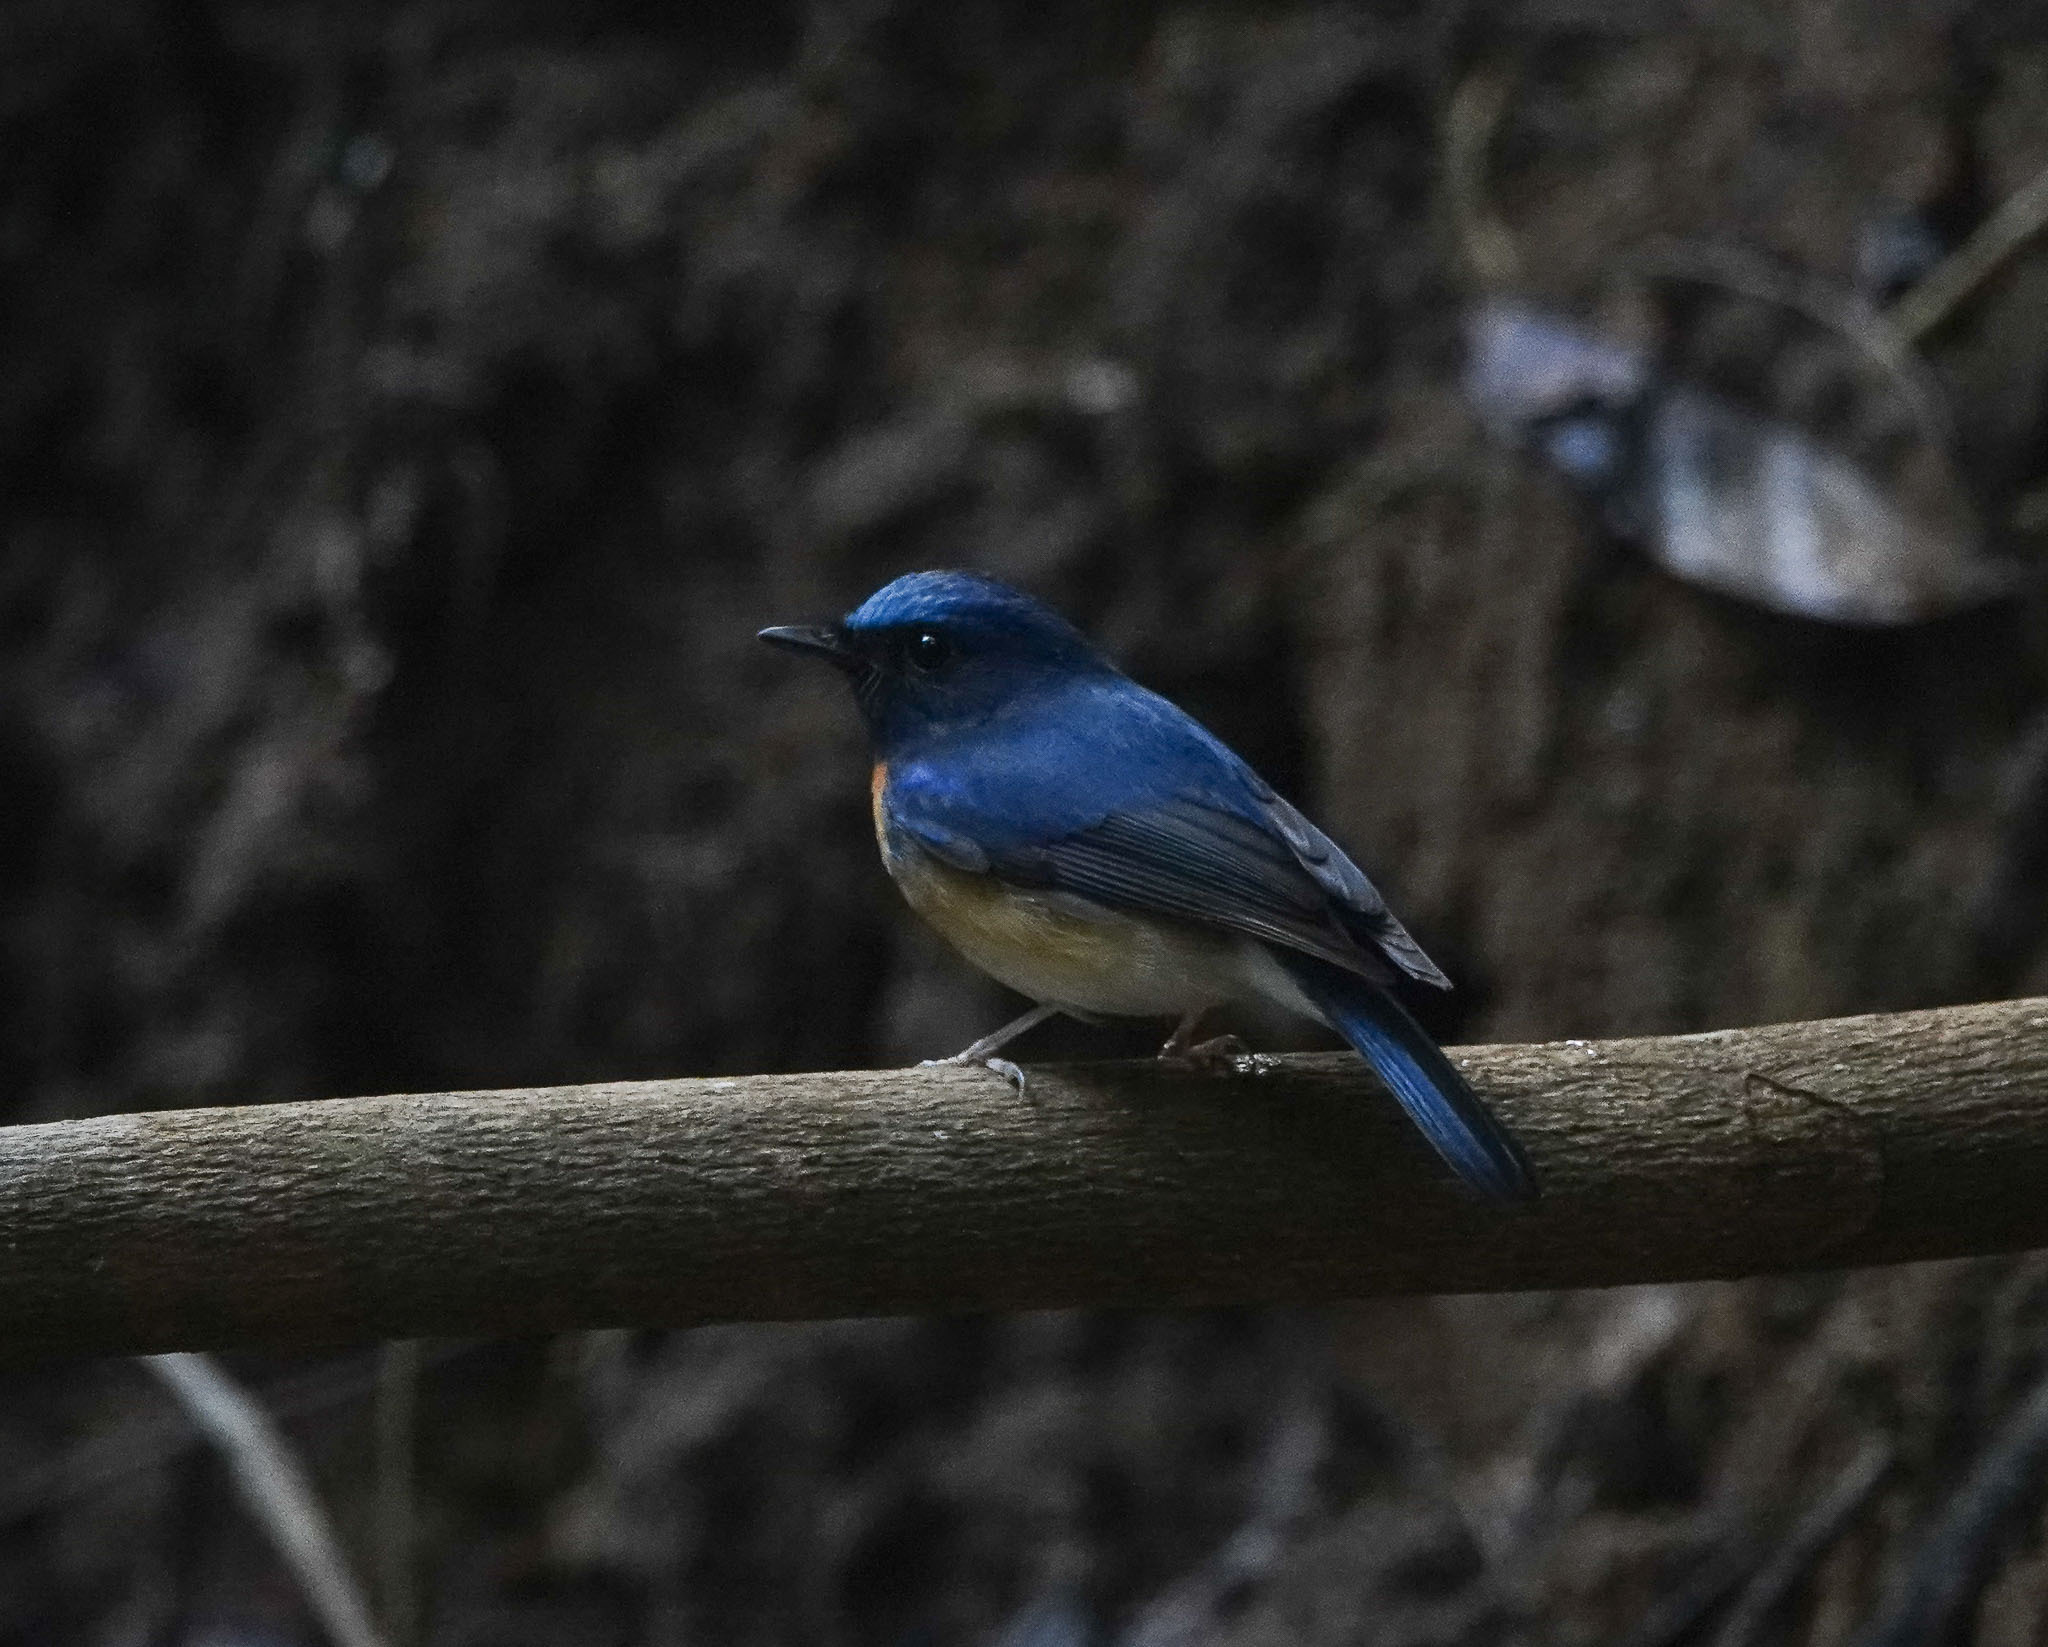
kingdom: Animalia
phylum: Chordata
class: Aves
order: Passeriformes
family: Muscicapidae
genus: Cyornis
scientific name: Cyornis rubeculoides
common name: Blue-throated blue flycatcher
